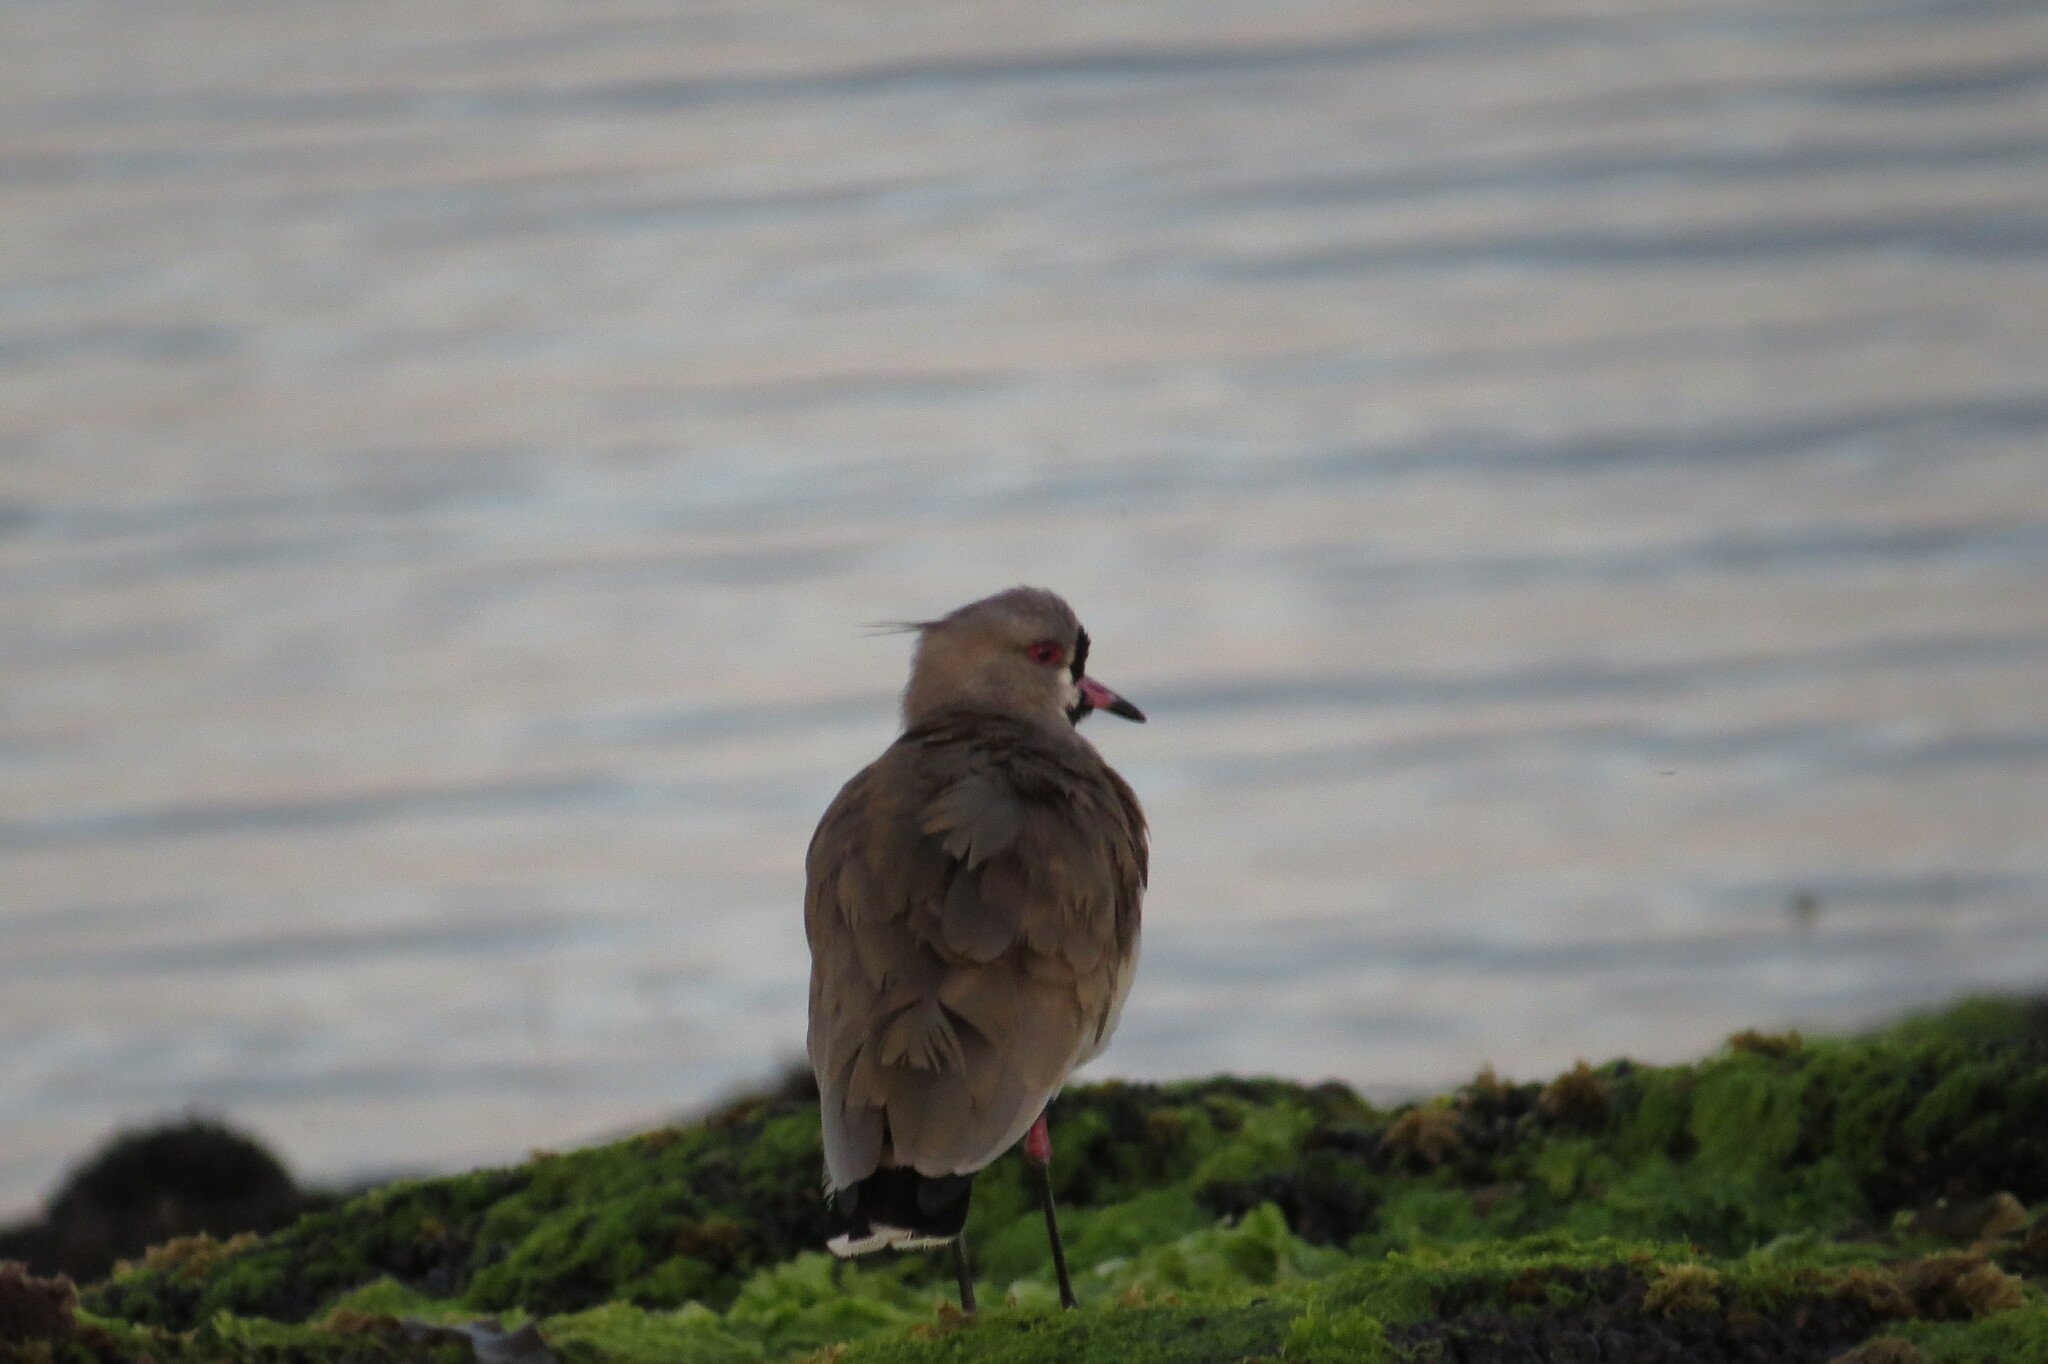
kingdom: Animalia
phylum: Chordata
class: Aves
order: Charadriiformes
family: Charadriidae
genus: Vanellus
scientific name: Vanellus chilensis
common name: Southern lapwing
